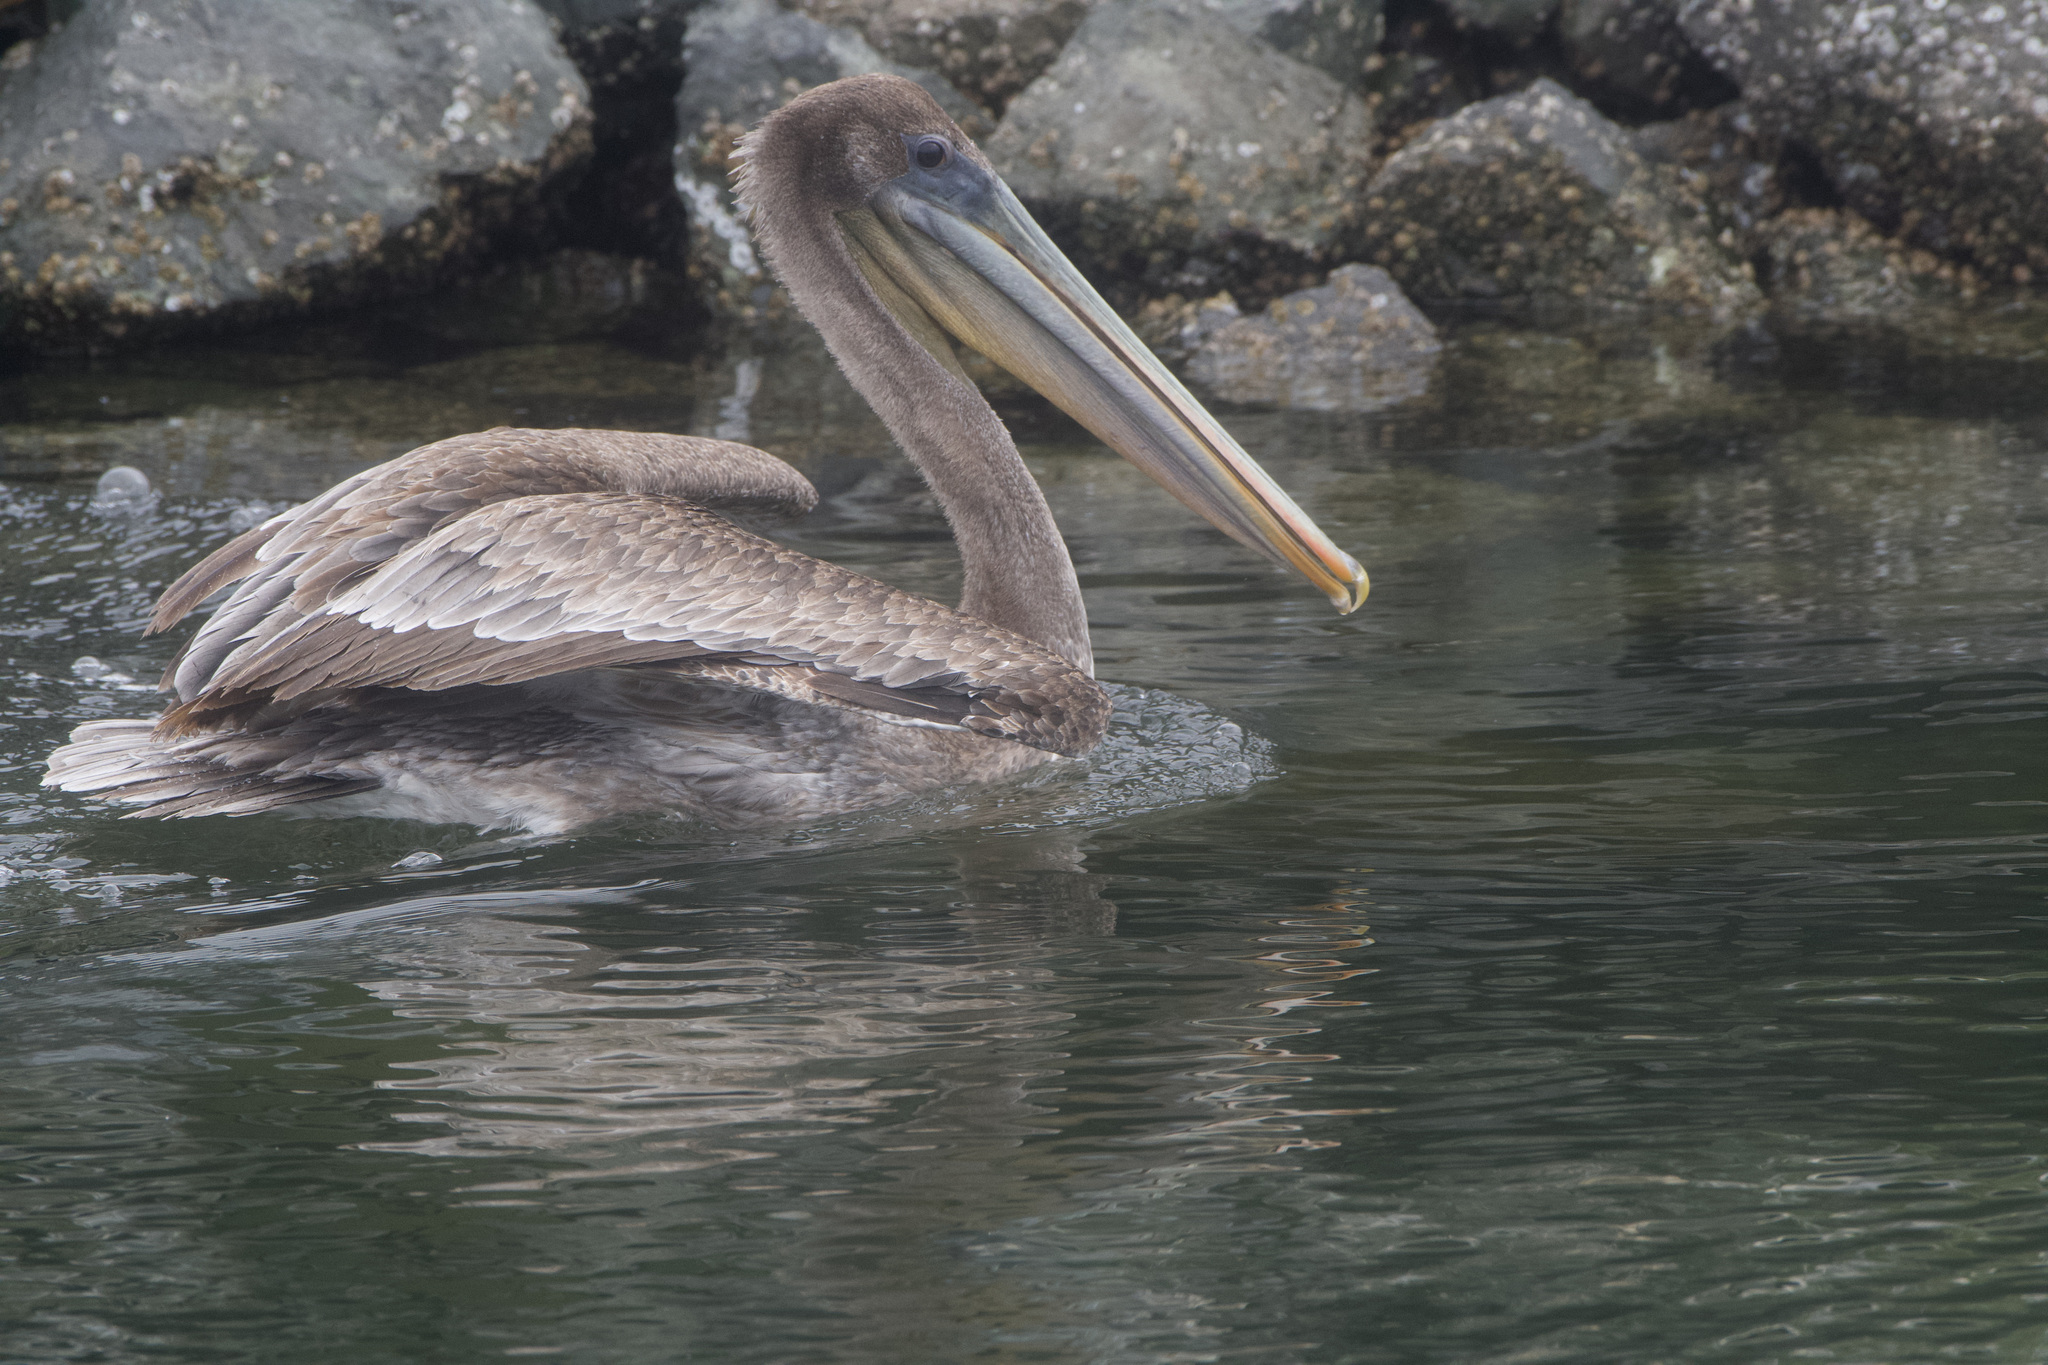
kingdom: Animalia
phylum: Chordata
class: Aves
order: Pelecaniformes
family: Pelecanidae
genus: Pelecanus
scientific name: Pelecanus occidentalis
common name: Brown pelican
